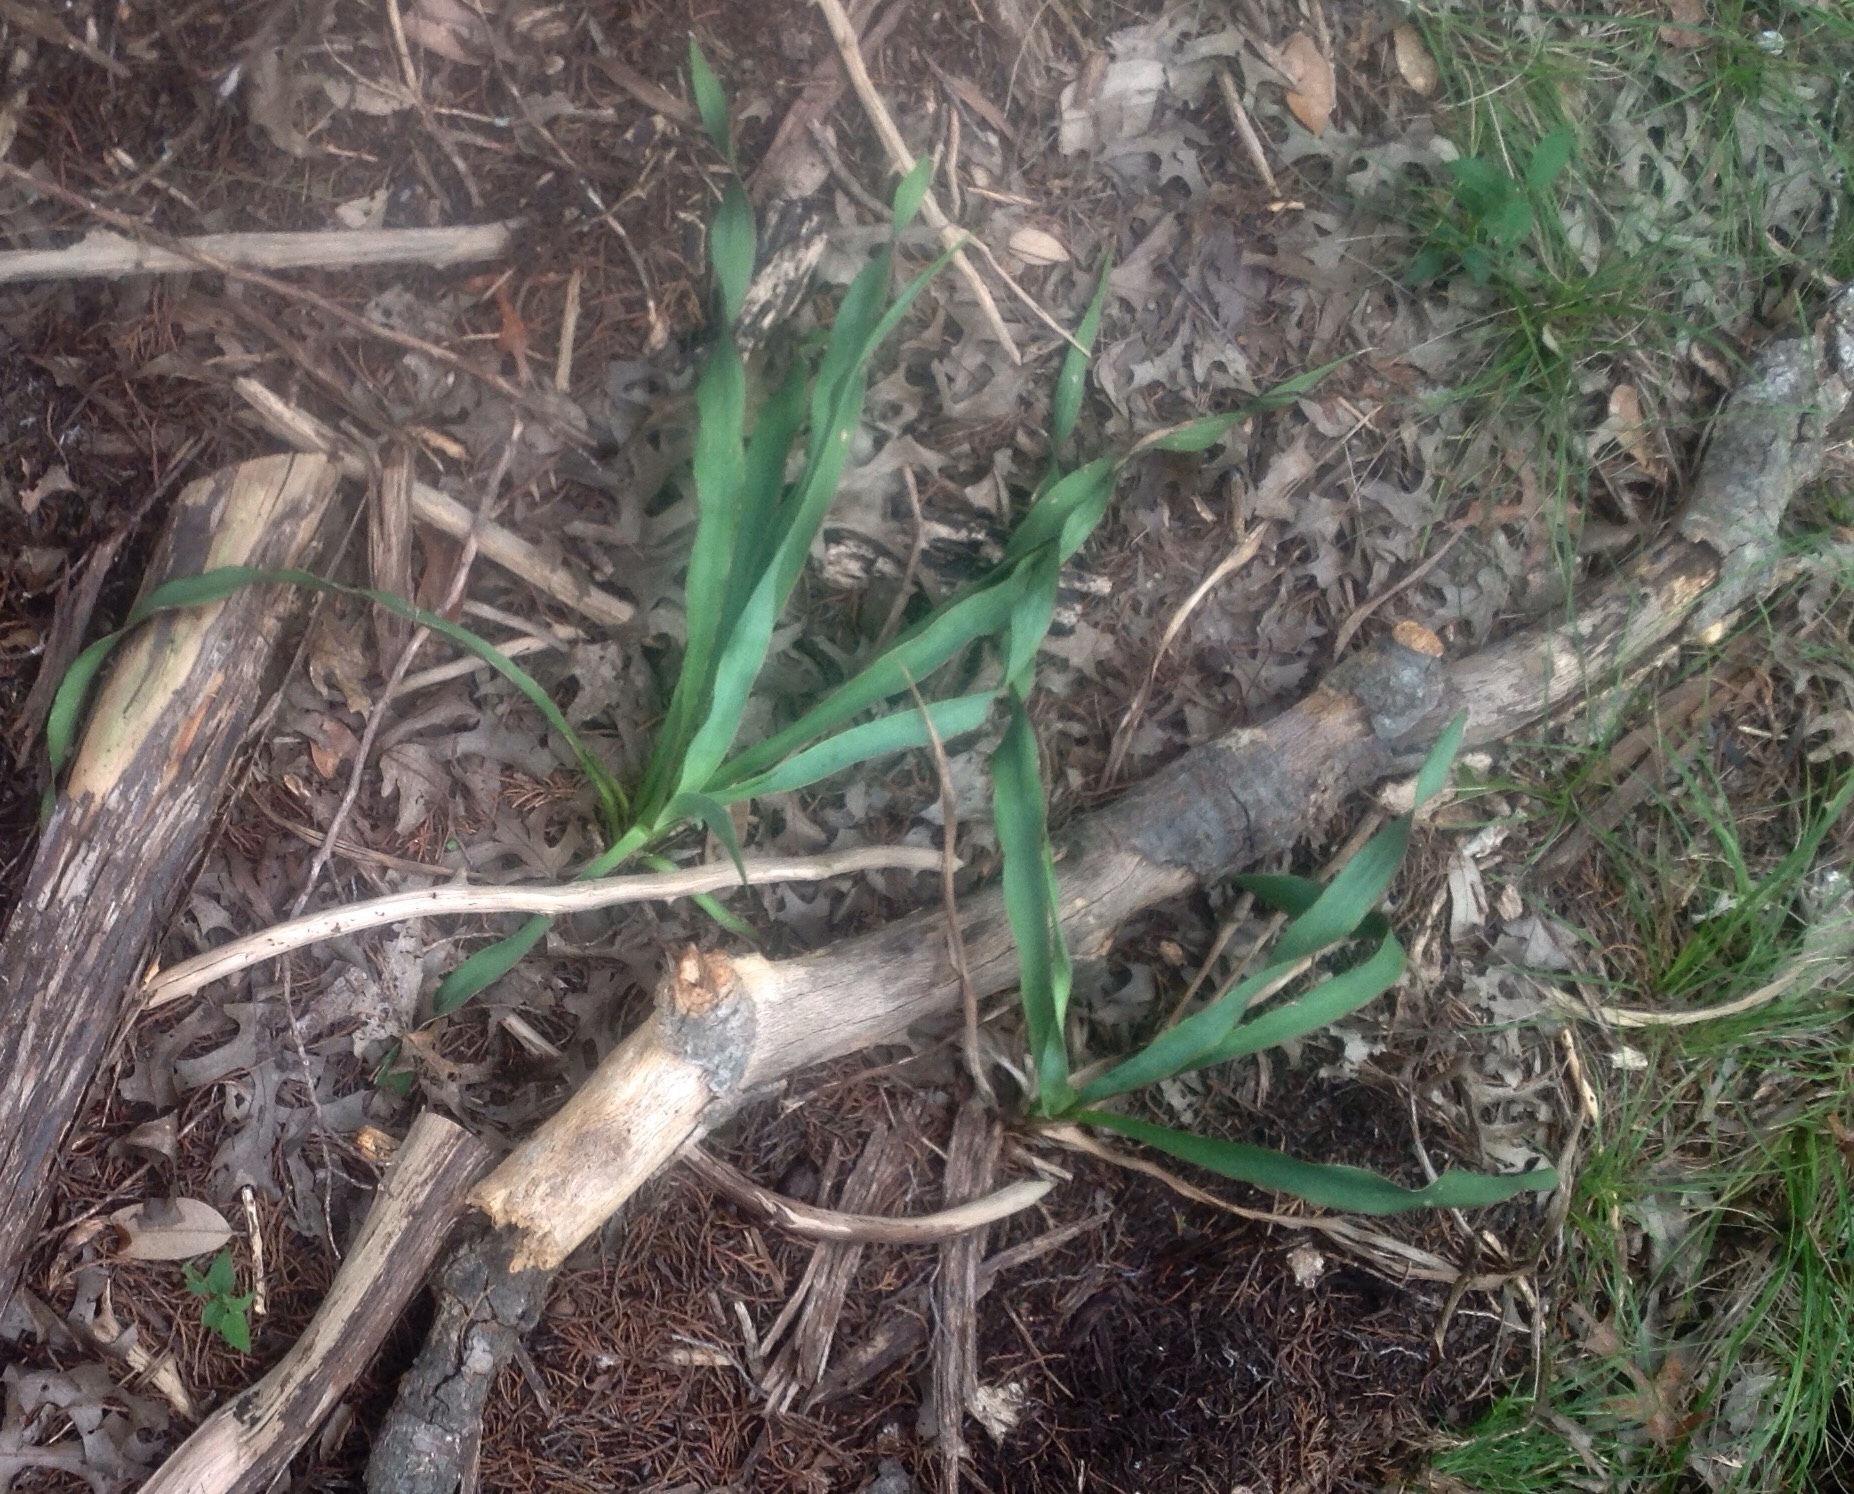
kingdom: Plantae
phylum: Tracheophyta
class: Liliopsida
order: Asparagales
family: Asparagaceae
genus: Yucca
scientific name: Yucca rupicola
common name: Twisted-leaf spanish-dagger
